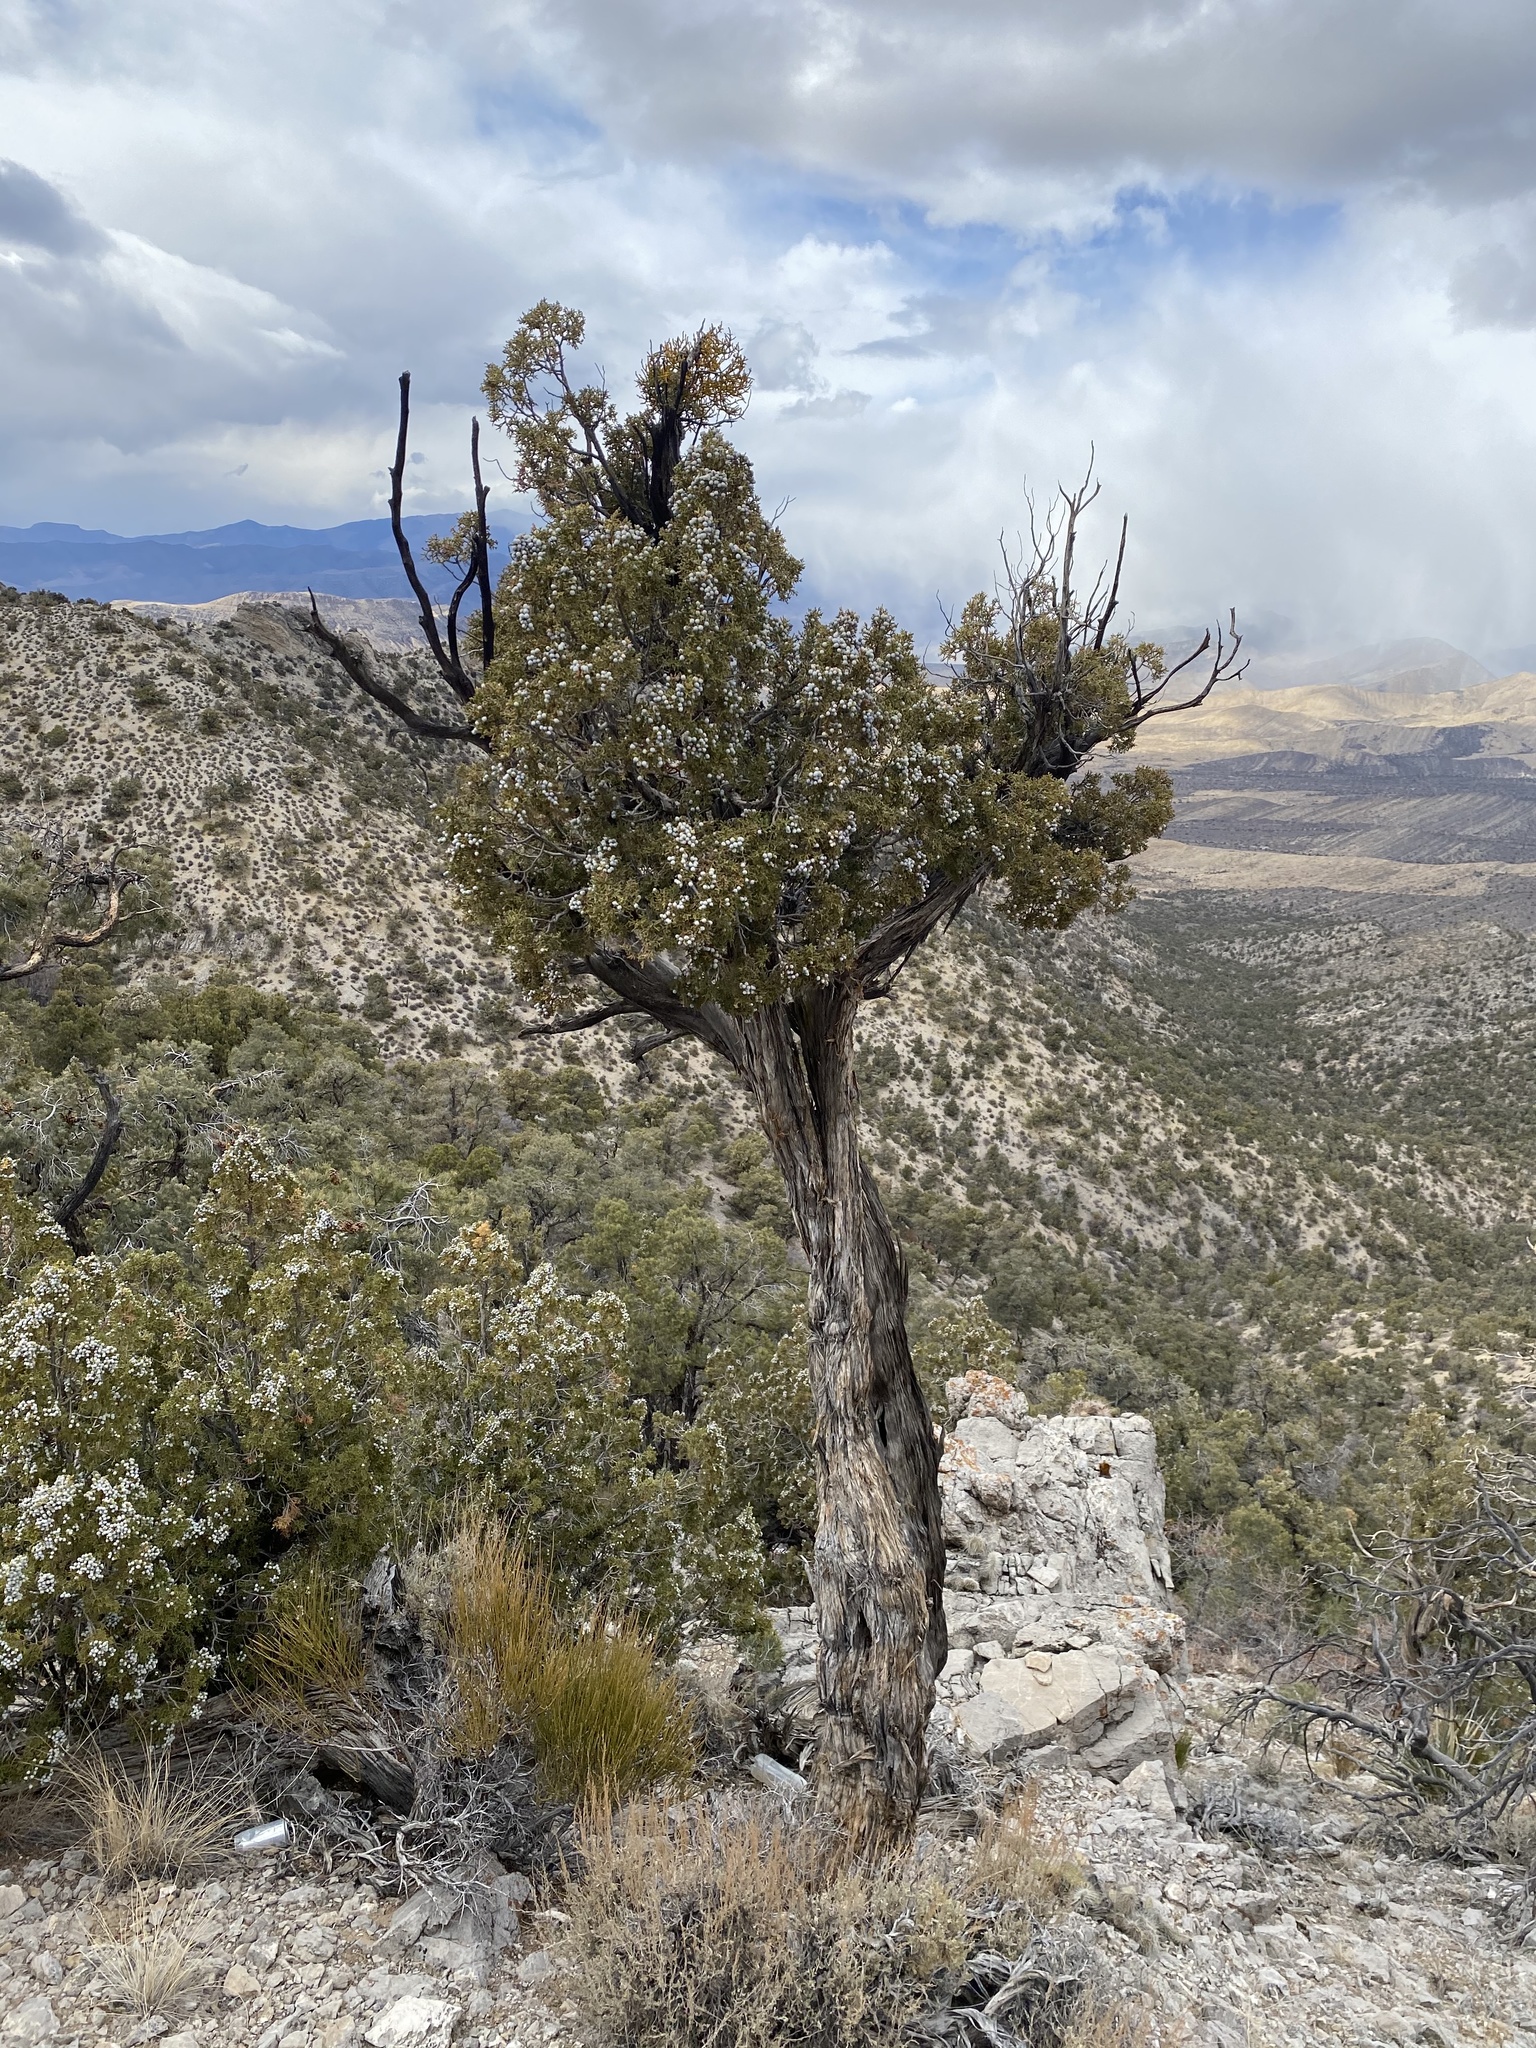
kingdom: Plantae
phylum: Tracheophyta
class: Pinopsida
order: Pinales
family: Cupressaceae
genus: Juniperus
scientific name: Juniperus osteosperma
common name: Utah juniper
